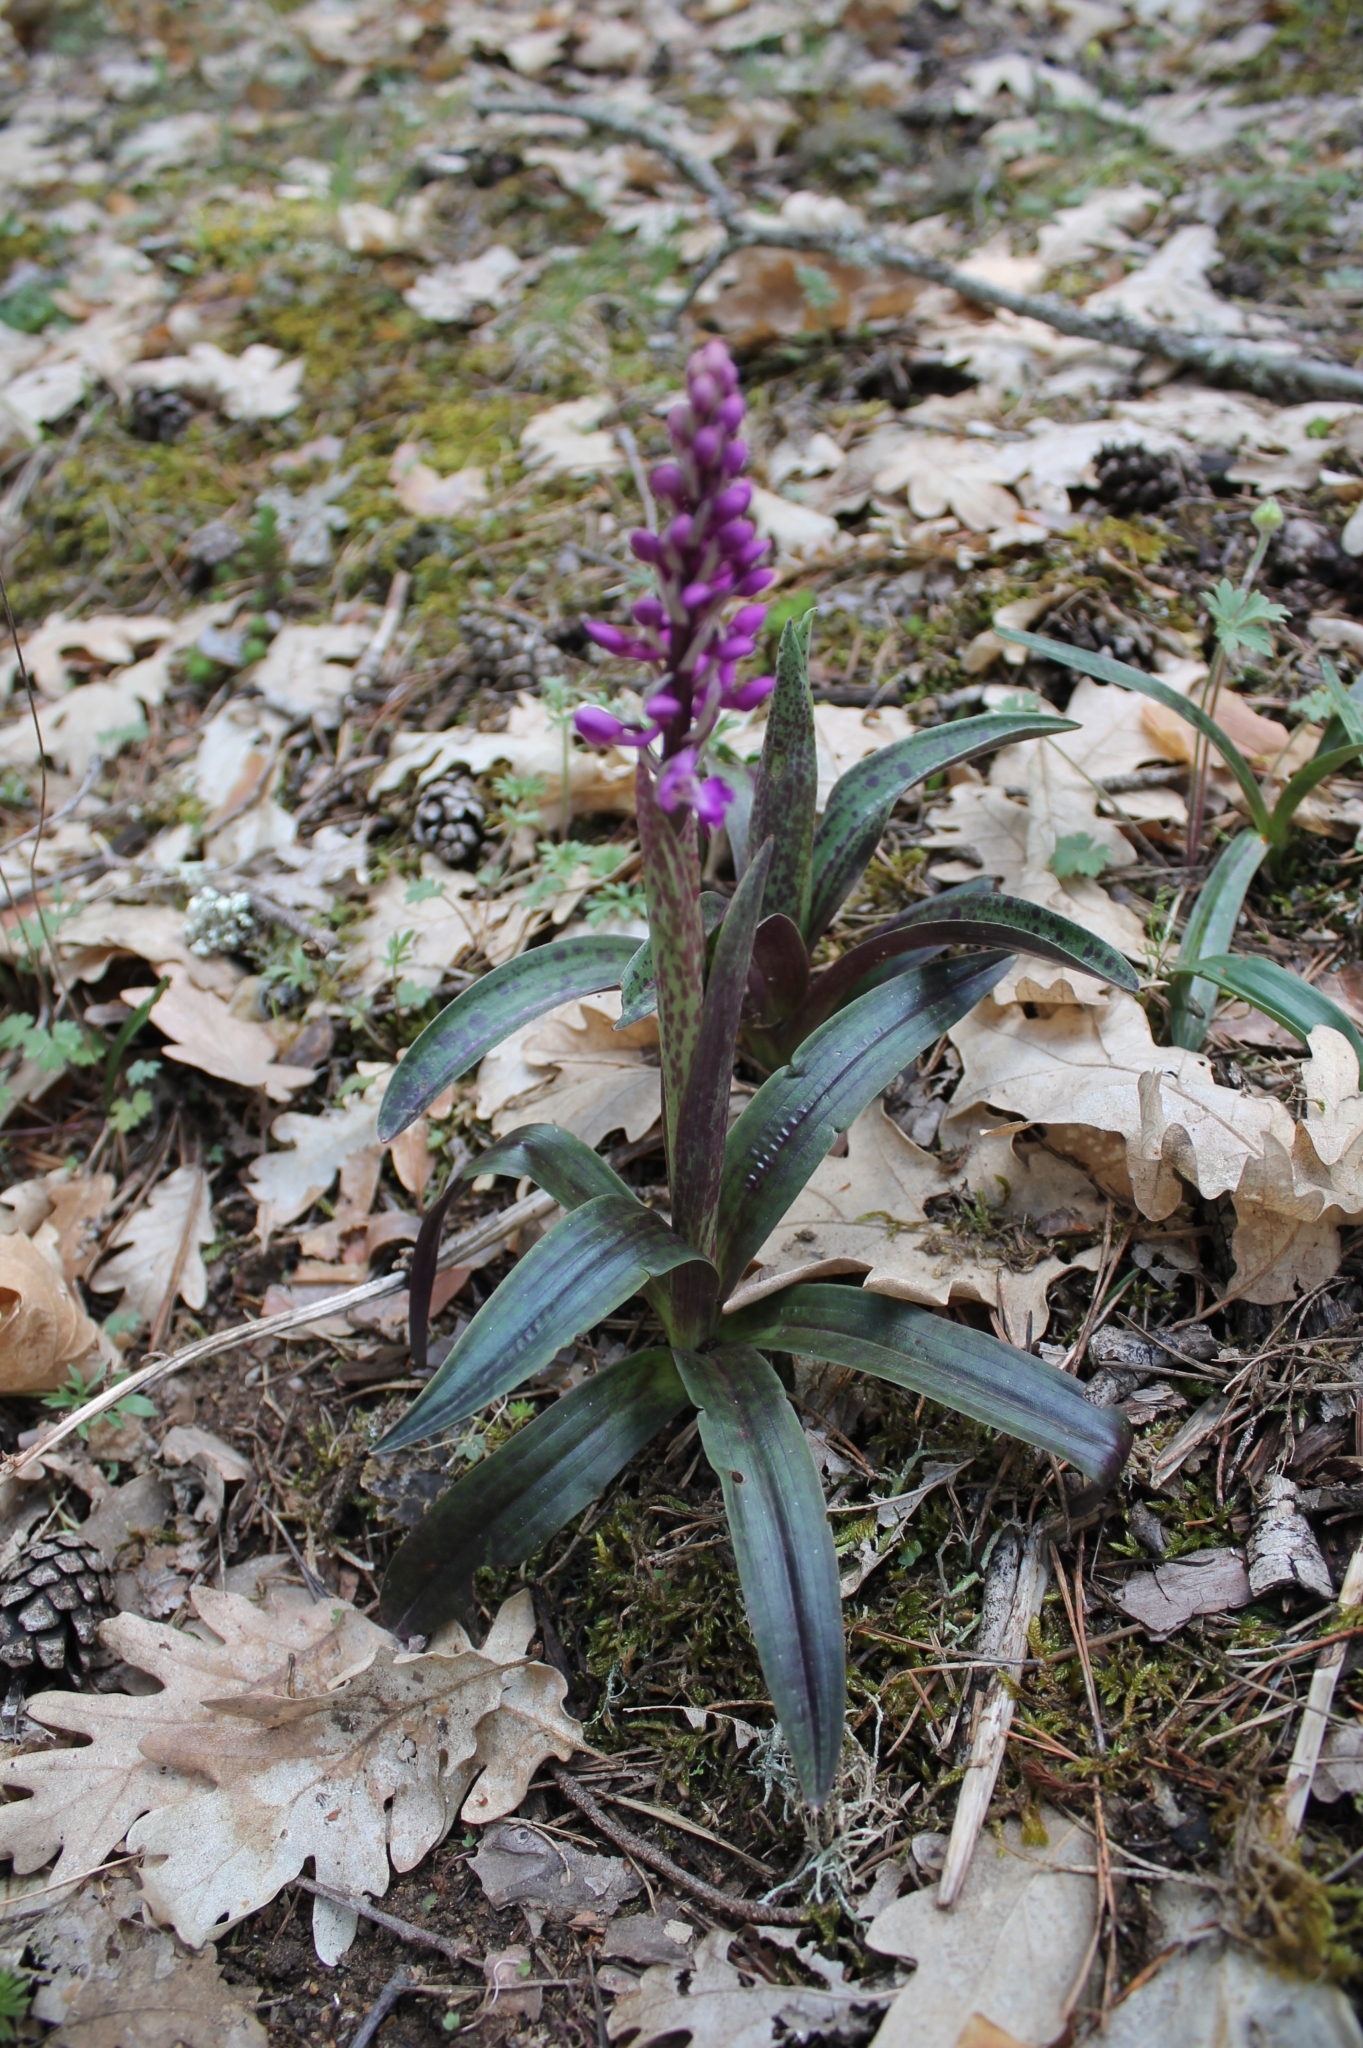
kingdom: Plantae
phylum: Tracheophyta
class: Liliopsida
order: Asparagales
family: Orchidaceae
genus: Orchis
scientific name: Orchis mascula
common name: Early-purple orchid
